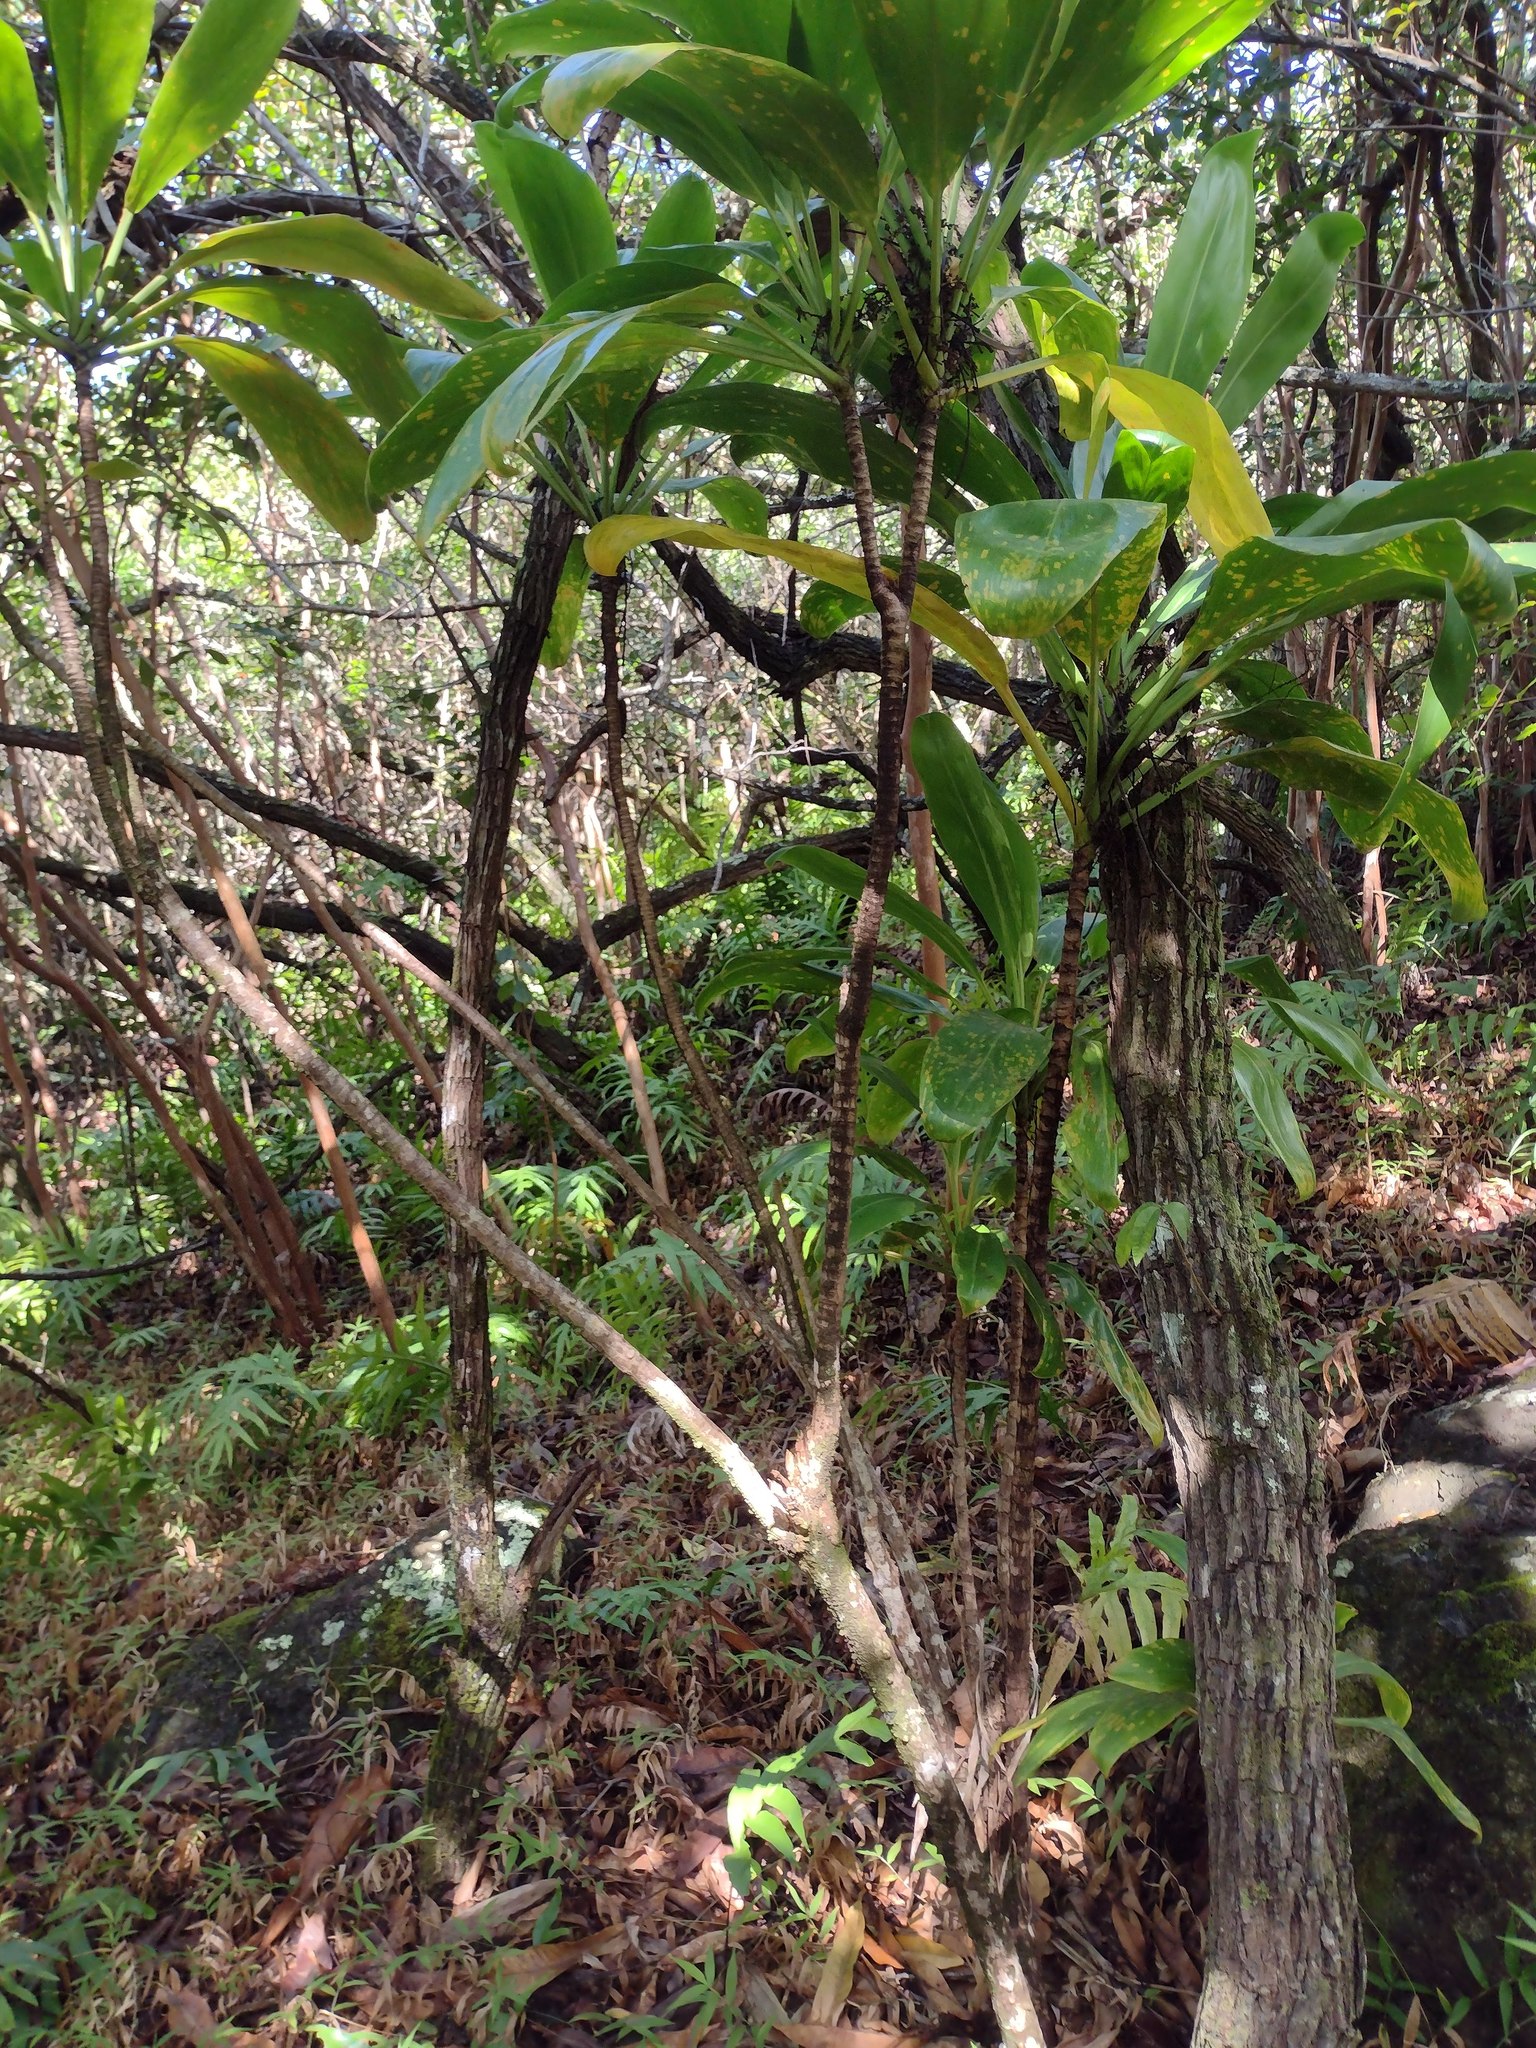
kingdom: Plantae
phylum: Tracheophyta
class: Liliopsida
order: Asparagales
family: Asparagaceae
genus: Cordyline
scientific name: Cordyline fruticosa
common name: Good-luck-plant
